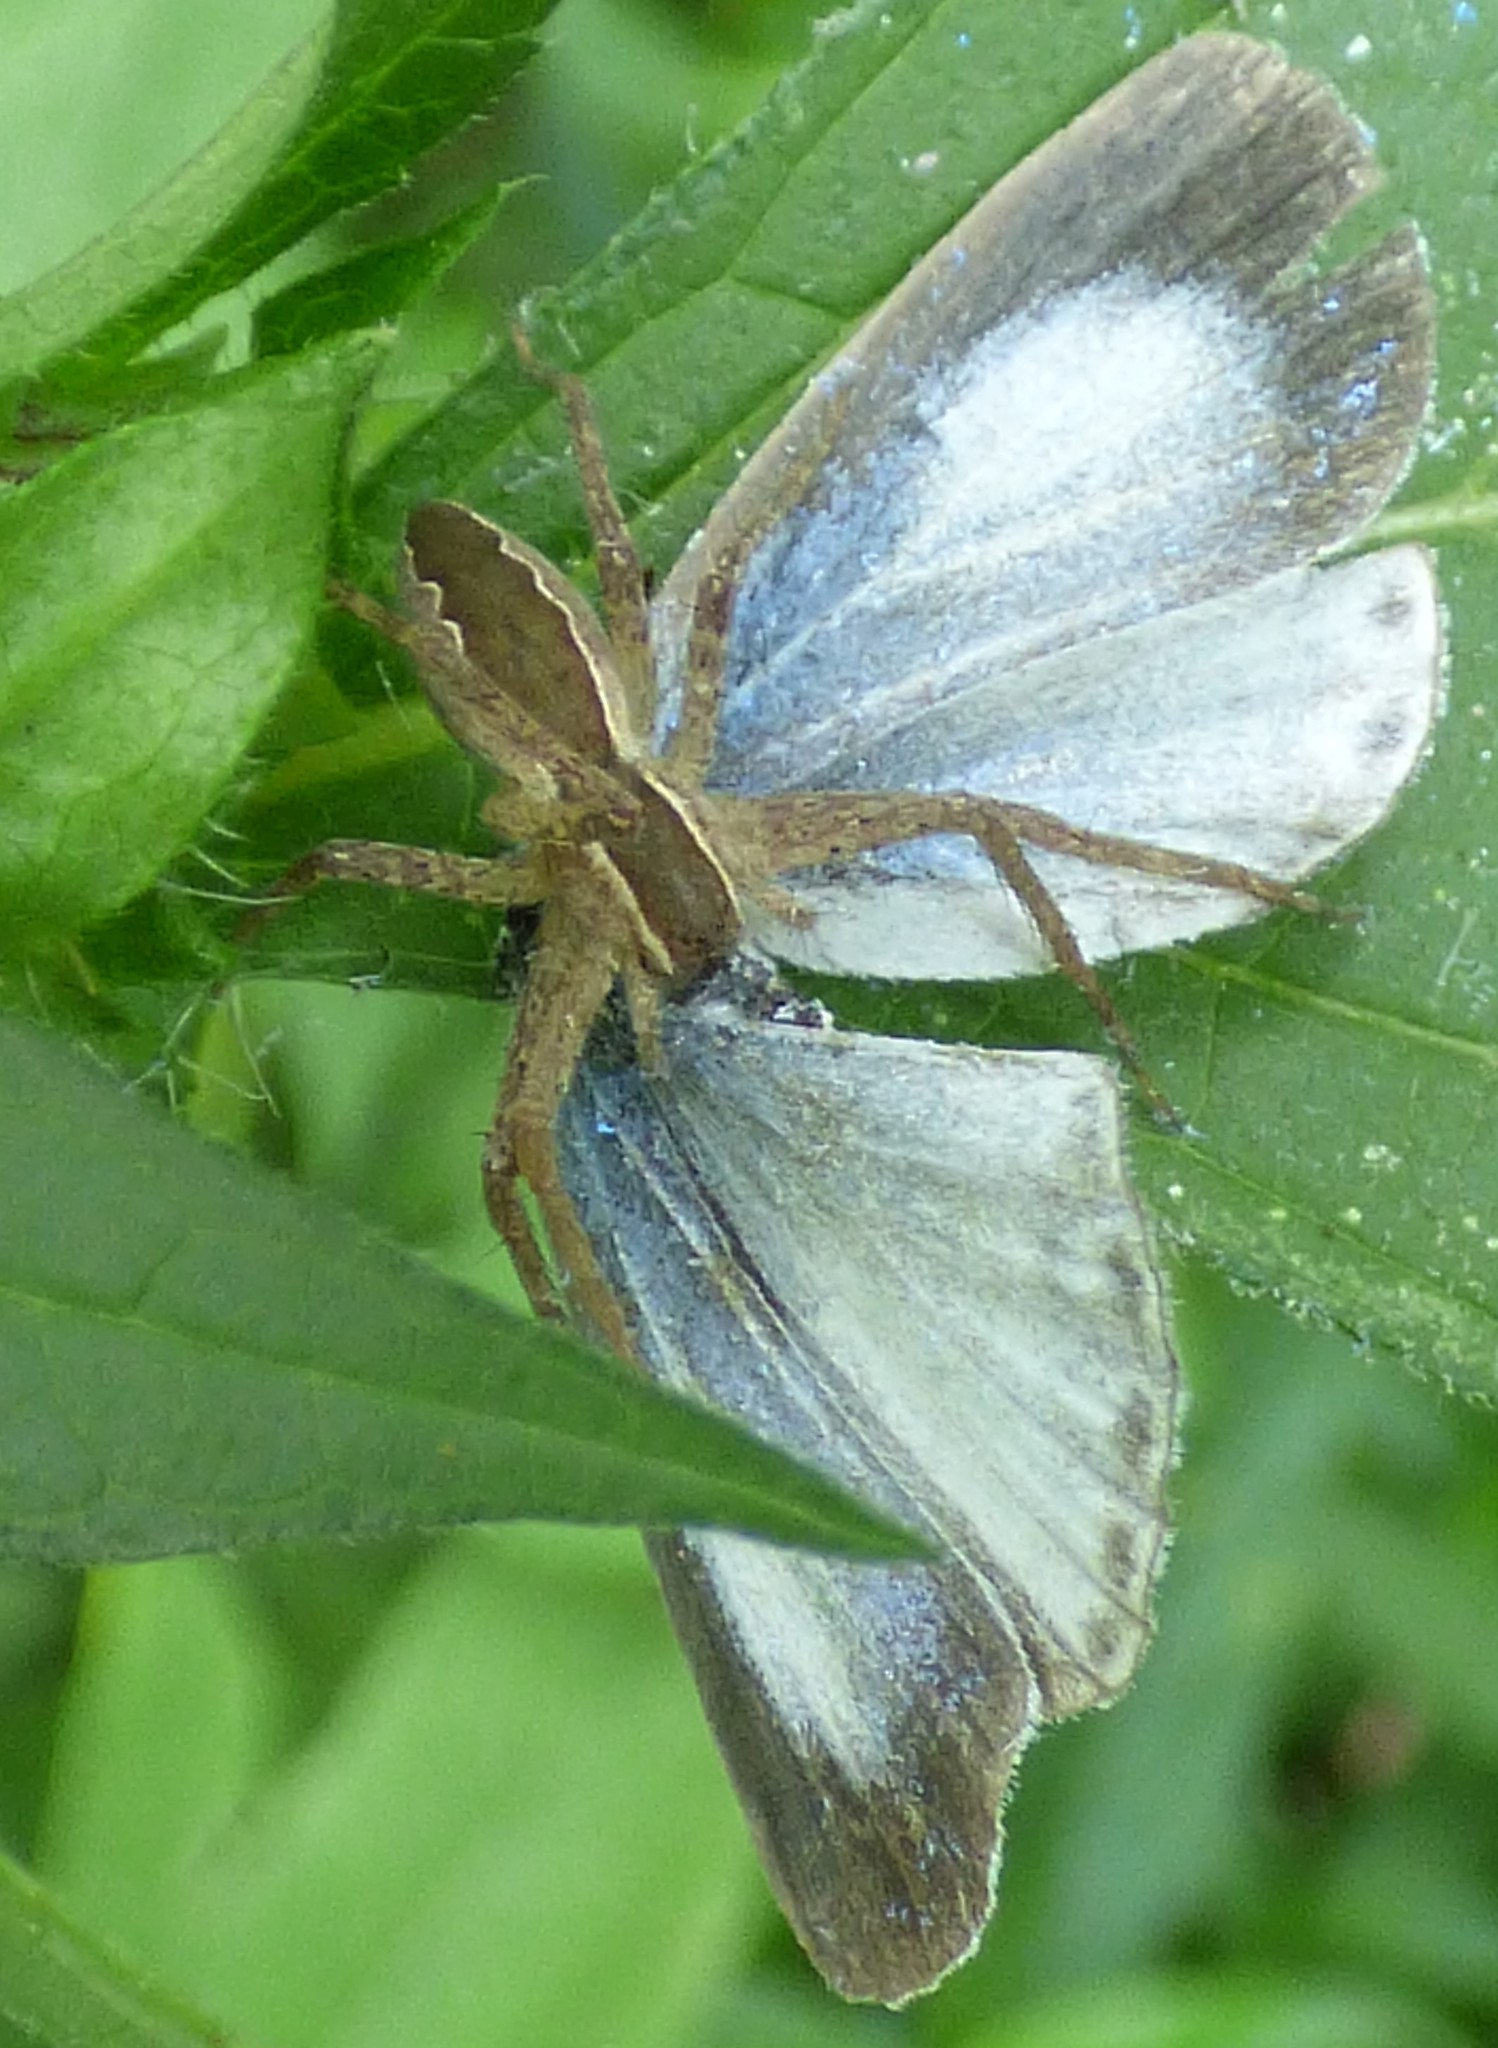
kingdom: Animalia
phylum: Arthropoda
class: Arachnida
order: Araneae
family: Pisauridae
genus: Pisaurina
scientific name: Pisaurina mira
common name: American nursery web spider
